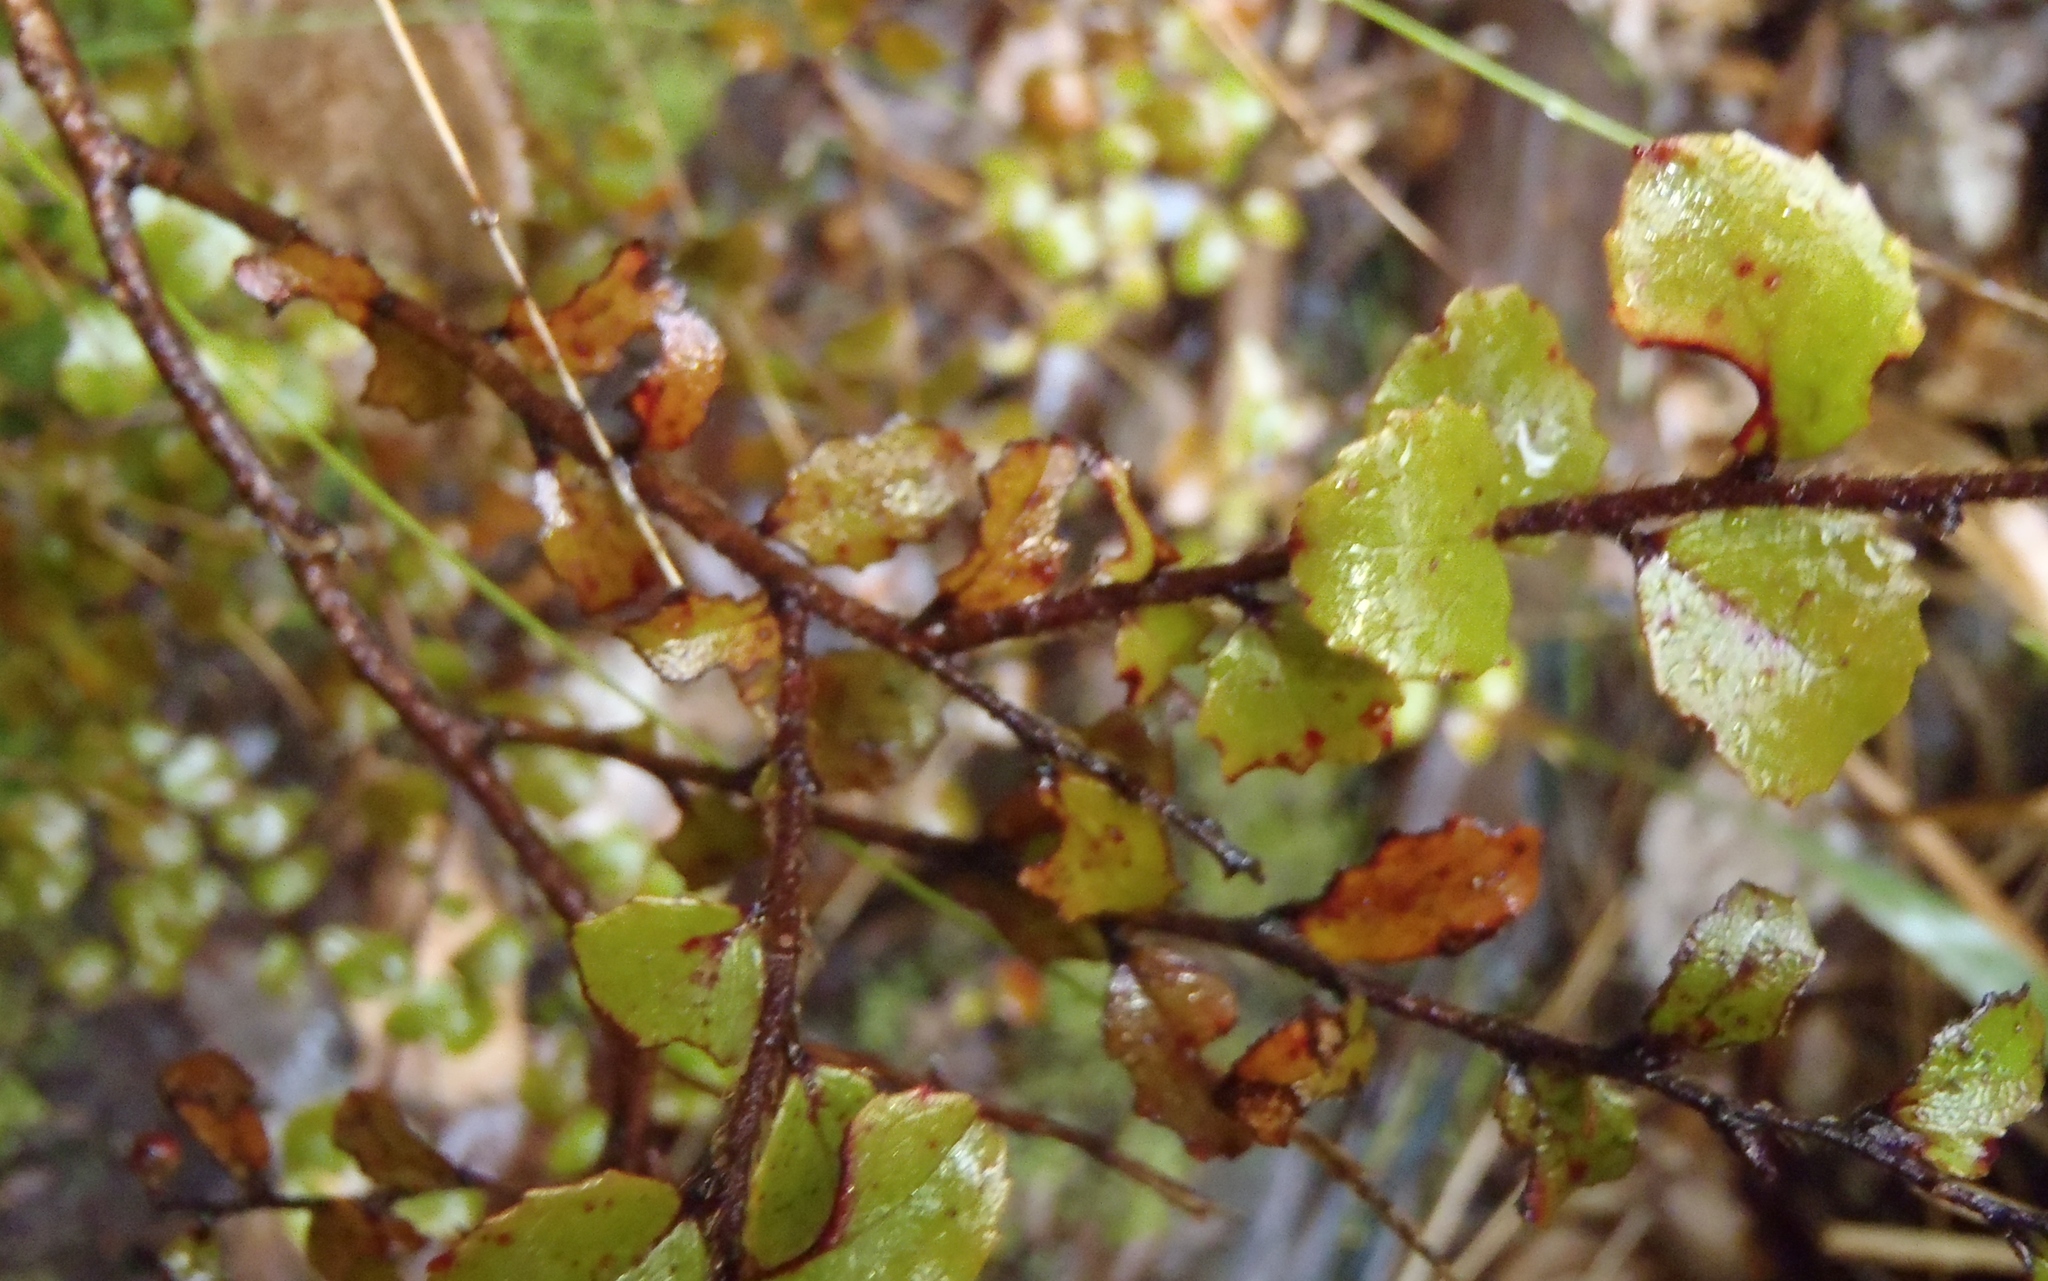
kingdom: Plantae
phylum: Tracheophyta
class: Magnoliopsida
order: Ericales
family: Ericaceae
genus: Gaultheria
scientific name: Gaultheria antipoda
